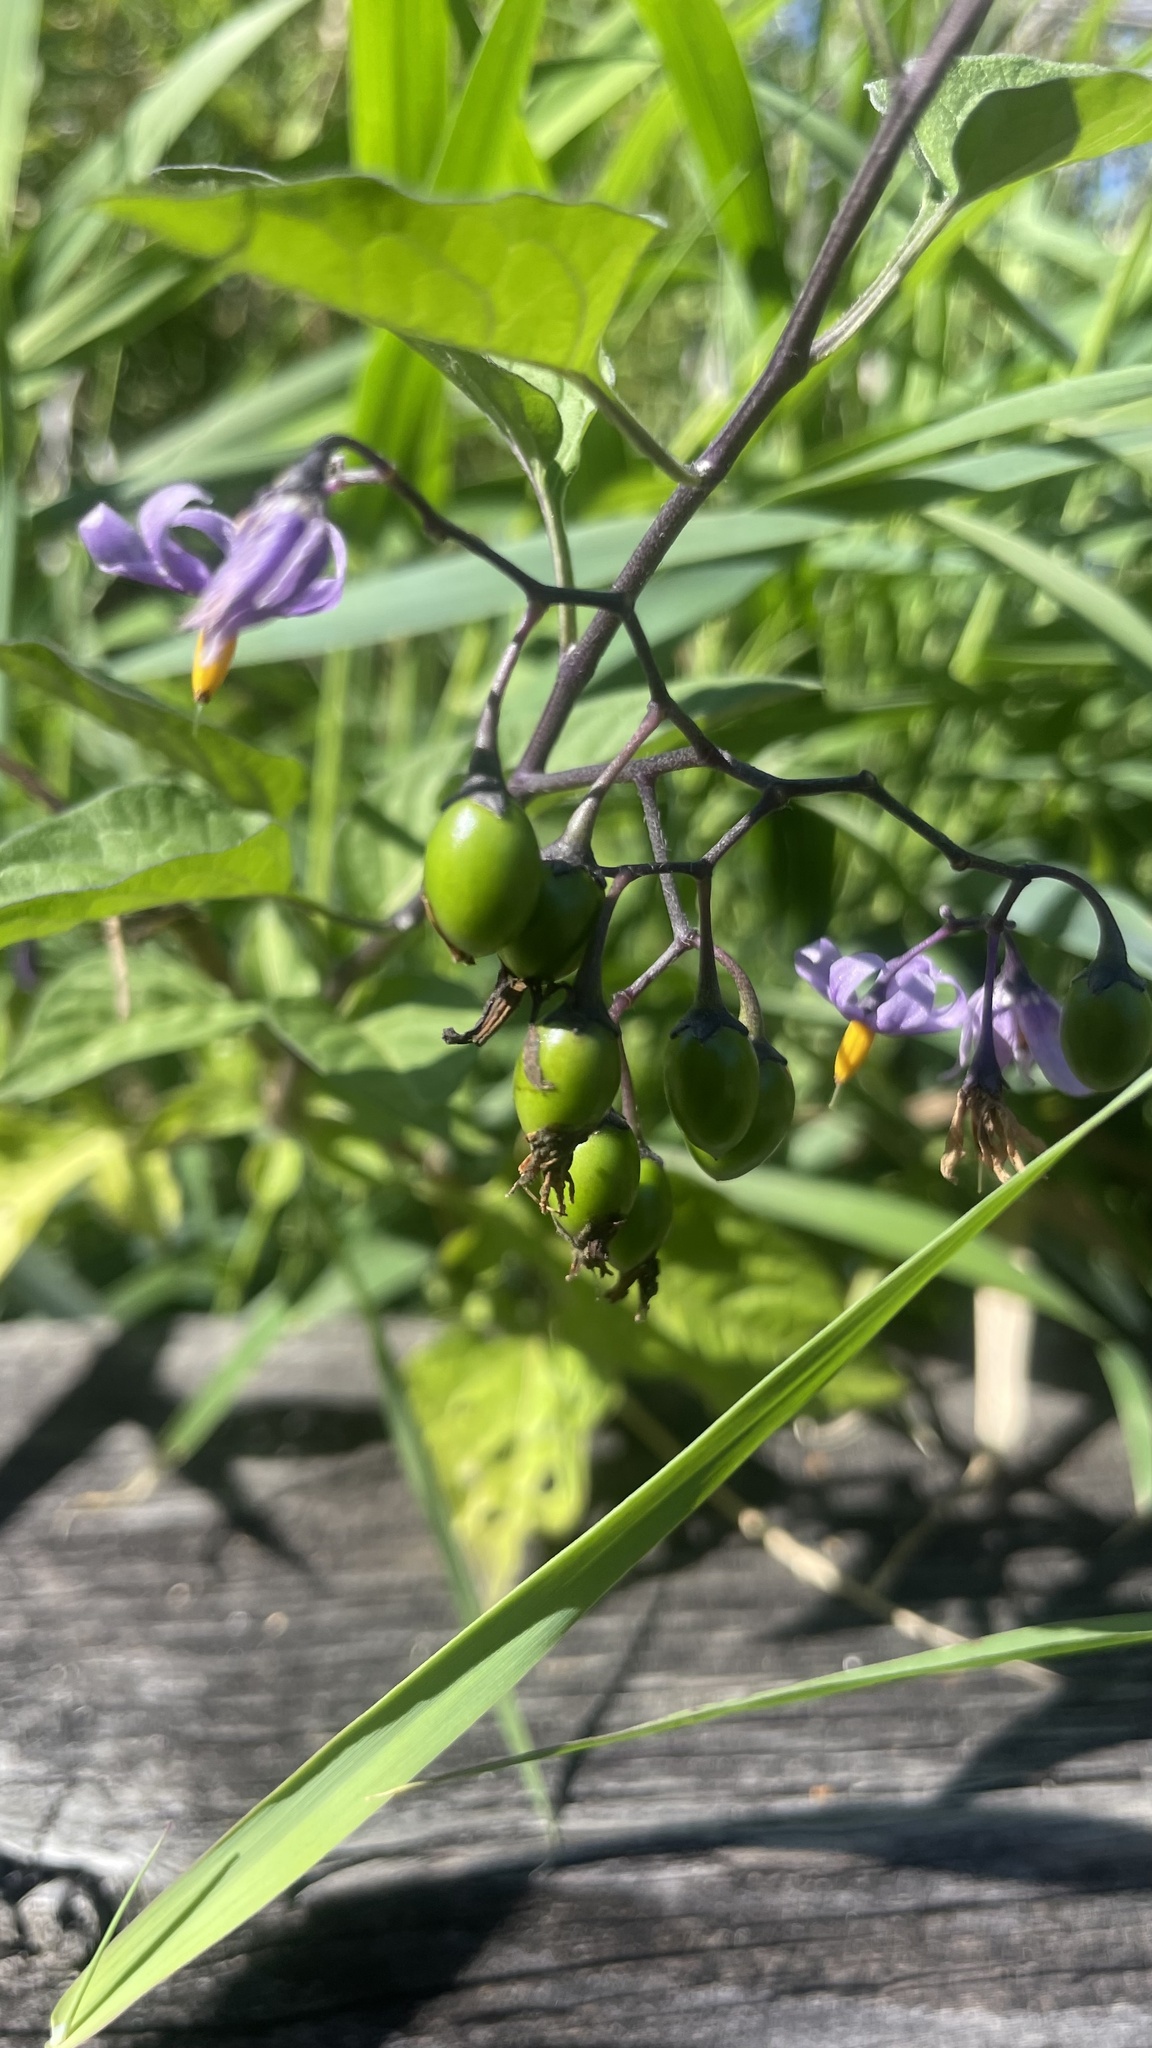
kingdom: Plantae
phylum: Tracheophyta
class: Magnoliopsida
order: Solanales
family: Solanaceae
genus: Solanum
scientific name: Solanum dulcamara
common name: Climbing nightshade
